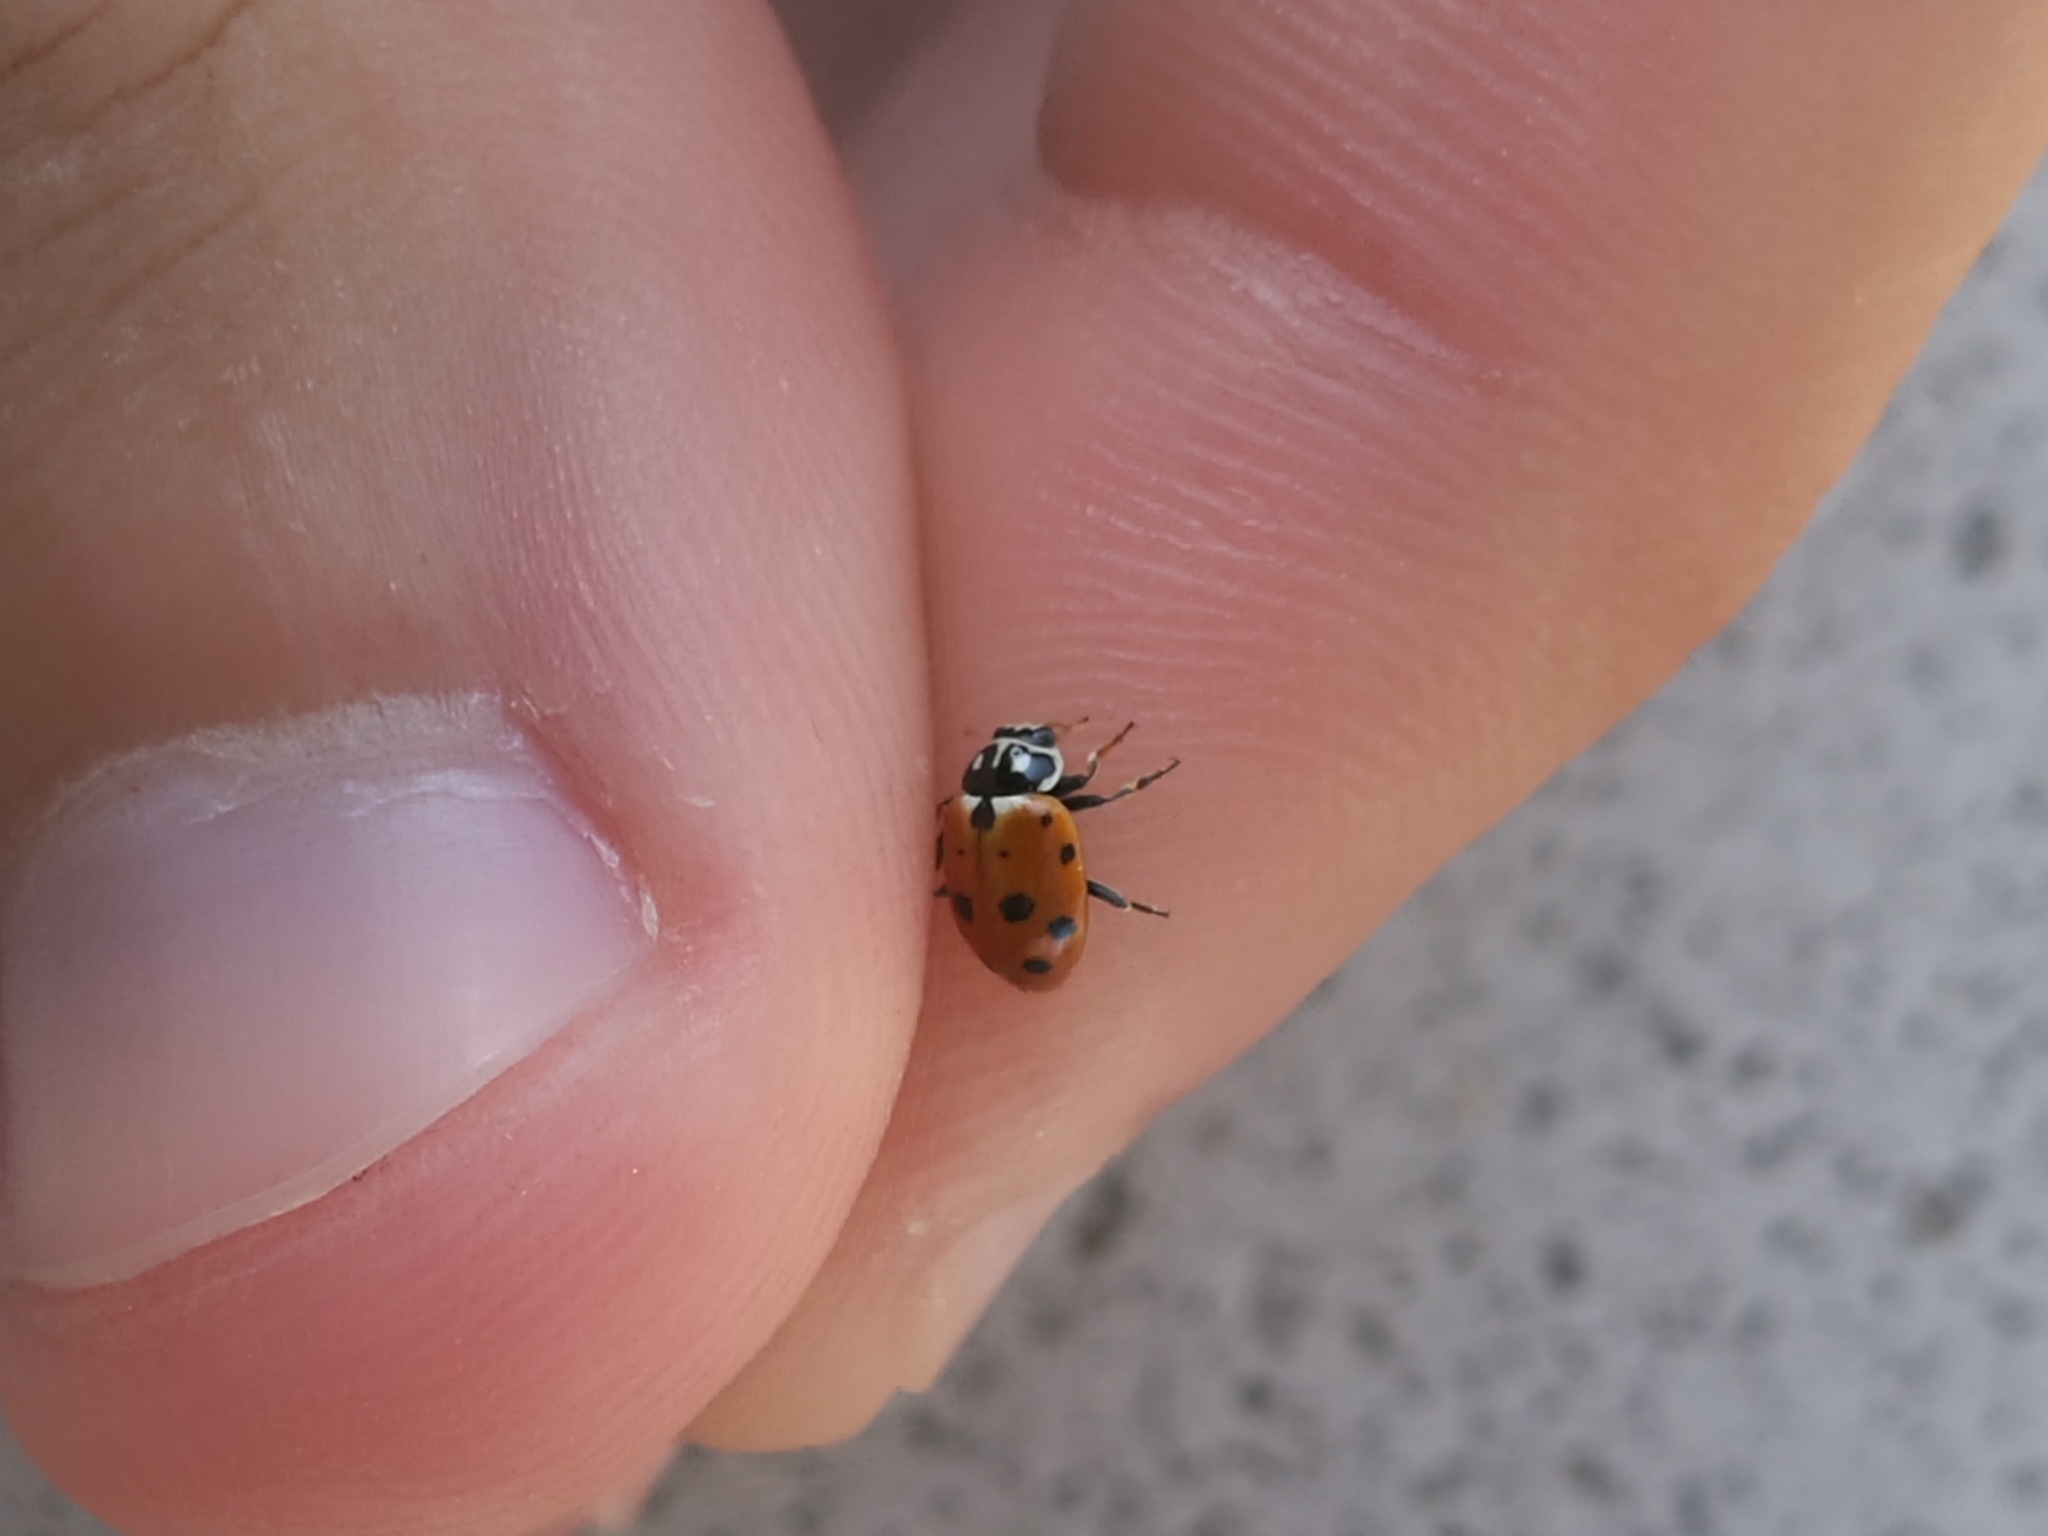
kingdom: Animalia
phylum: Arthropoda
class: Insecta
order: Coleoptera
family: Coccinellidae
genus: Hippodamia
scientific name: Hippodamia variegata
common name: Ladybird beetle
